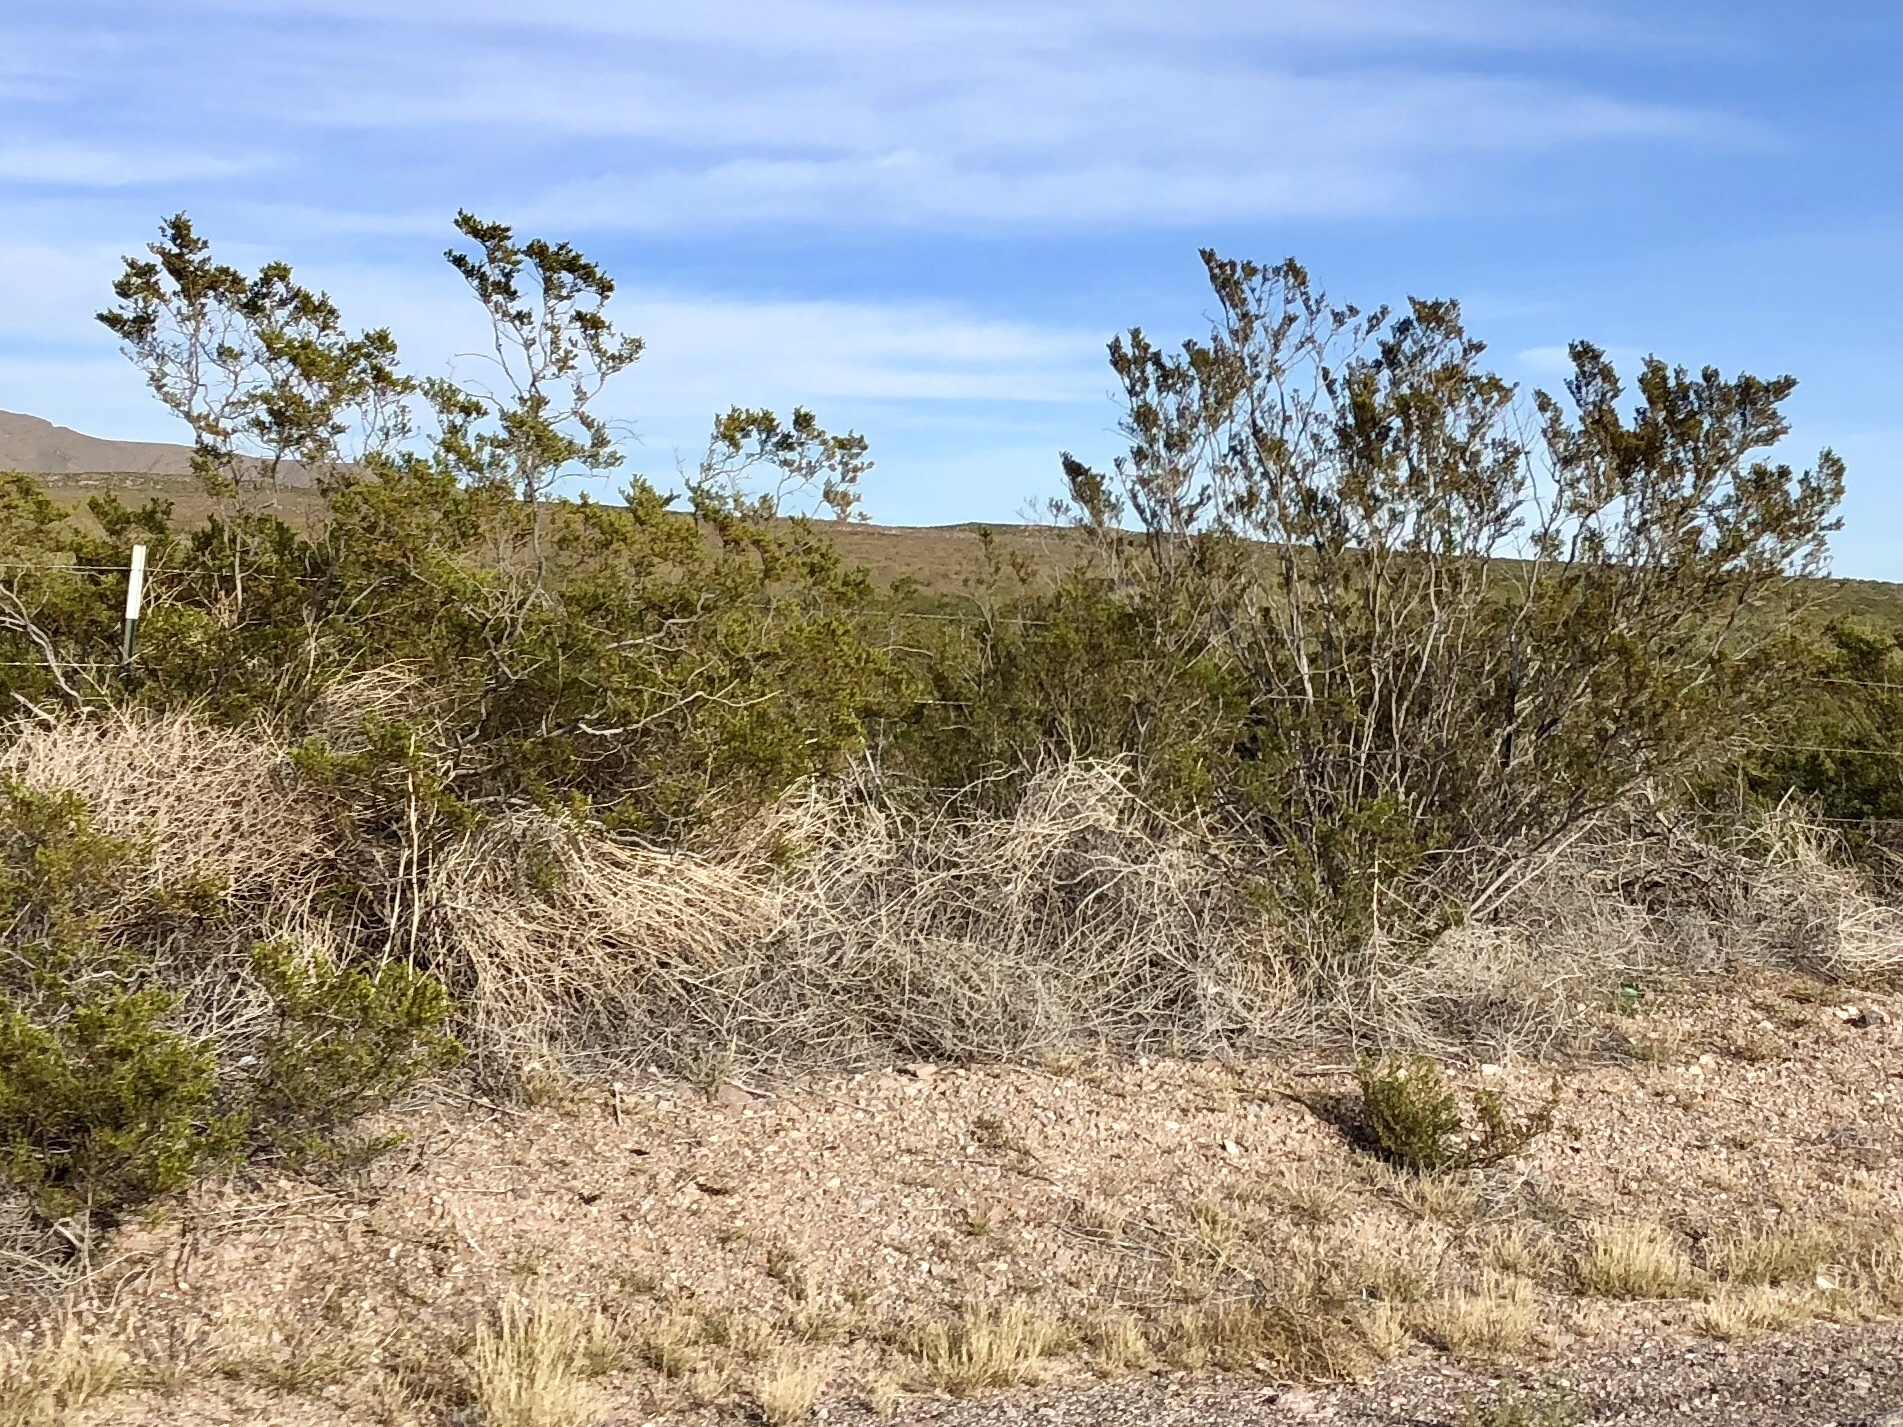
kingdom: Plantae
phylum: Tracheophyta
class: Magnoliopsida
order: Zygophyllales
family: Zygophyllaceae
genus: Larrea
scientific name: Larrea tridentata
